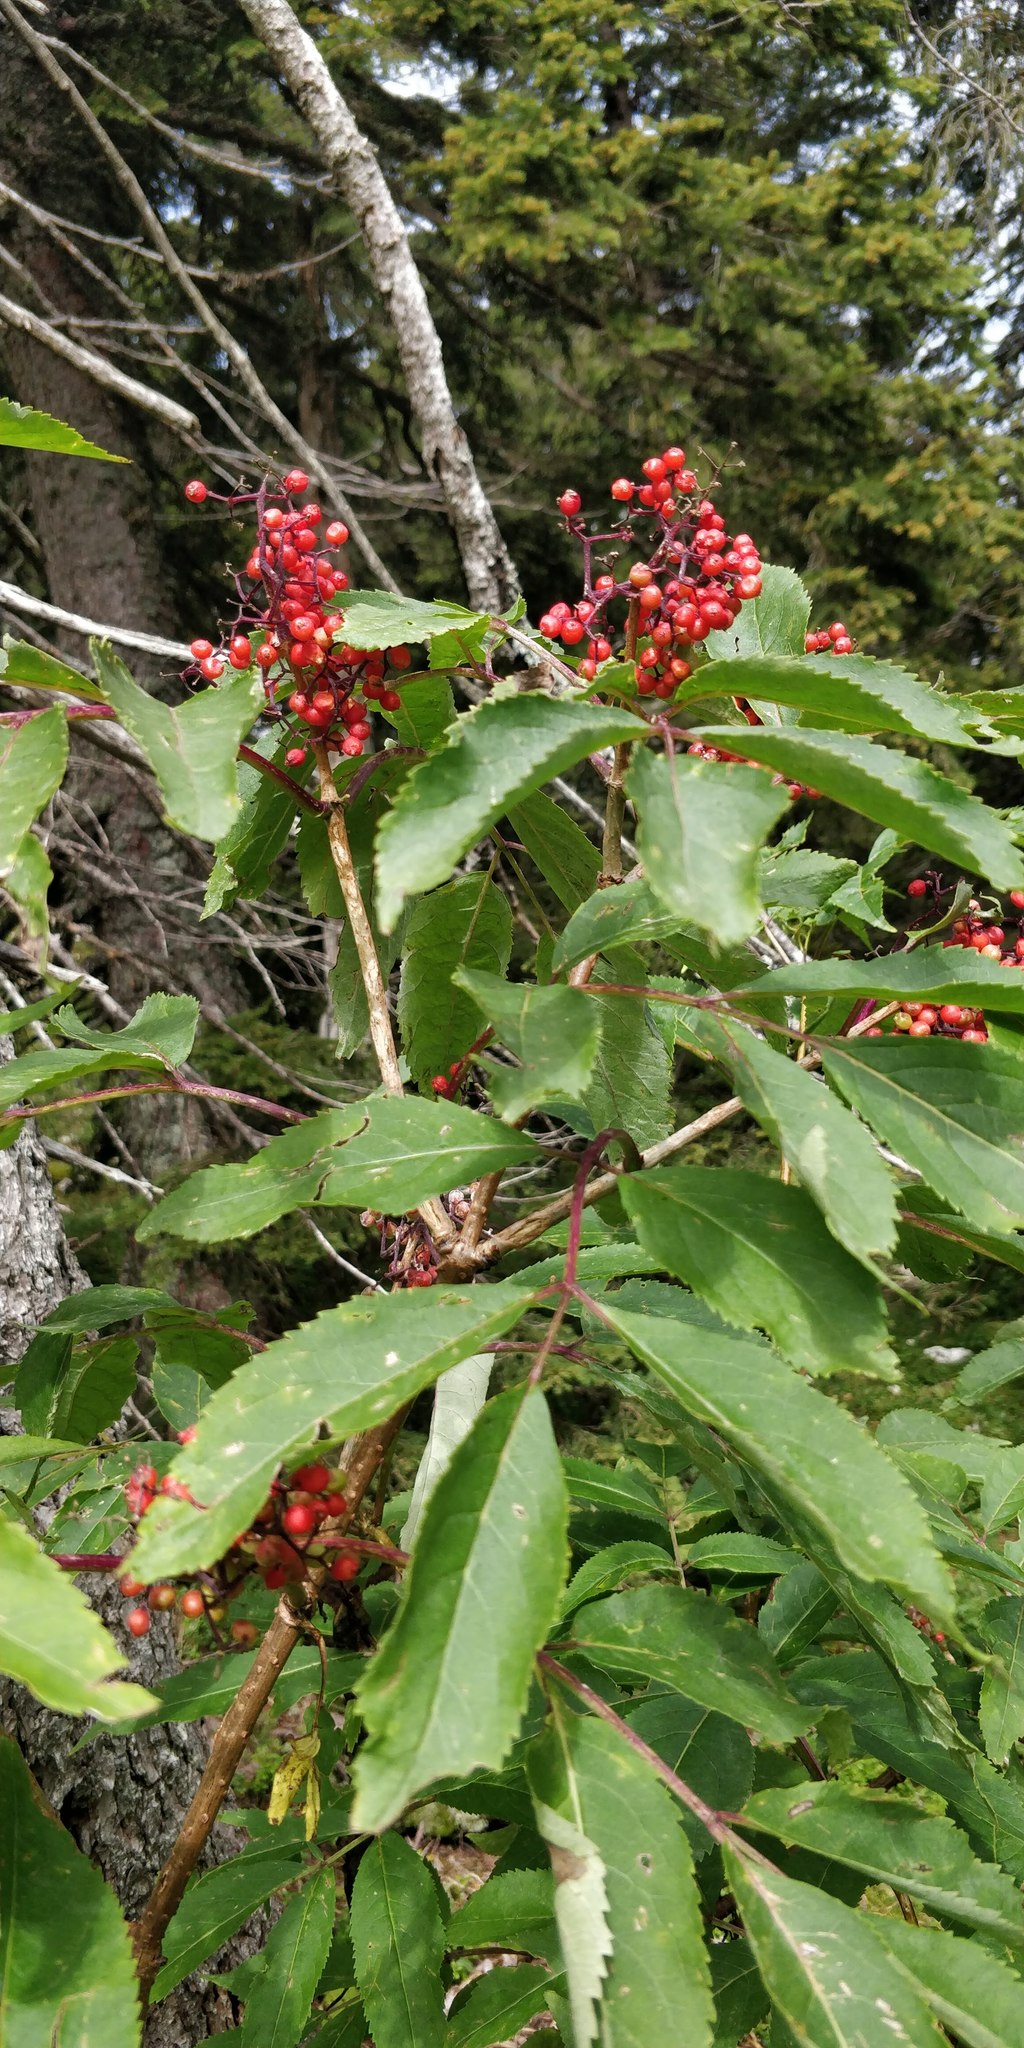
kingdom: Plantae
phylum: Tracheophyta
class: Magnoliopsida
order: Dipsacales
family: Viburnaceae
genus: Sambucus
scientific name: Sambucus racemosa
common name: Red-berried elder
